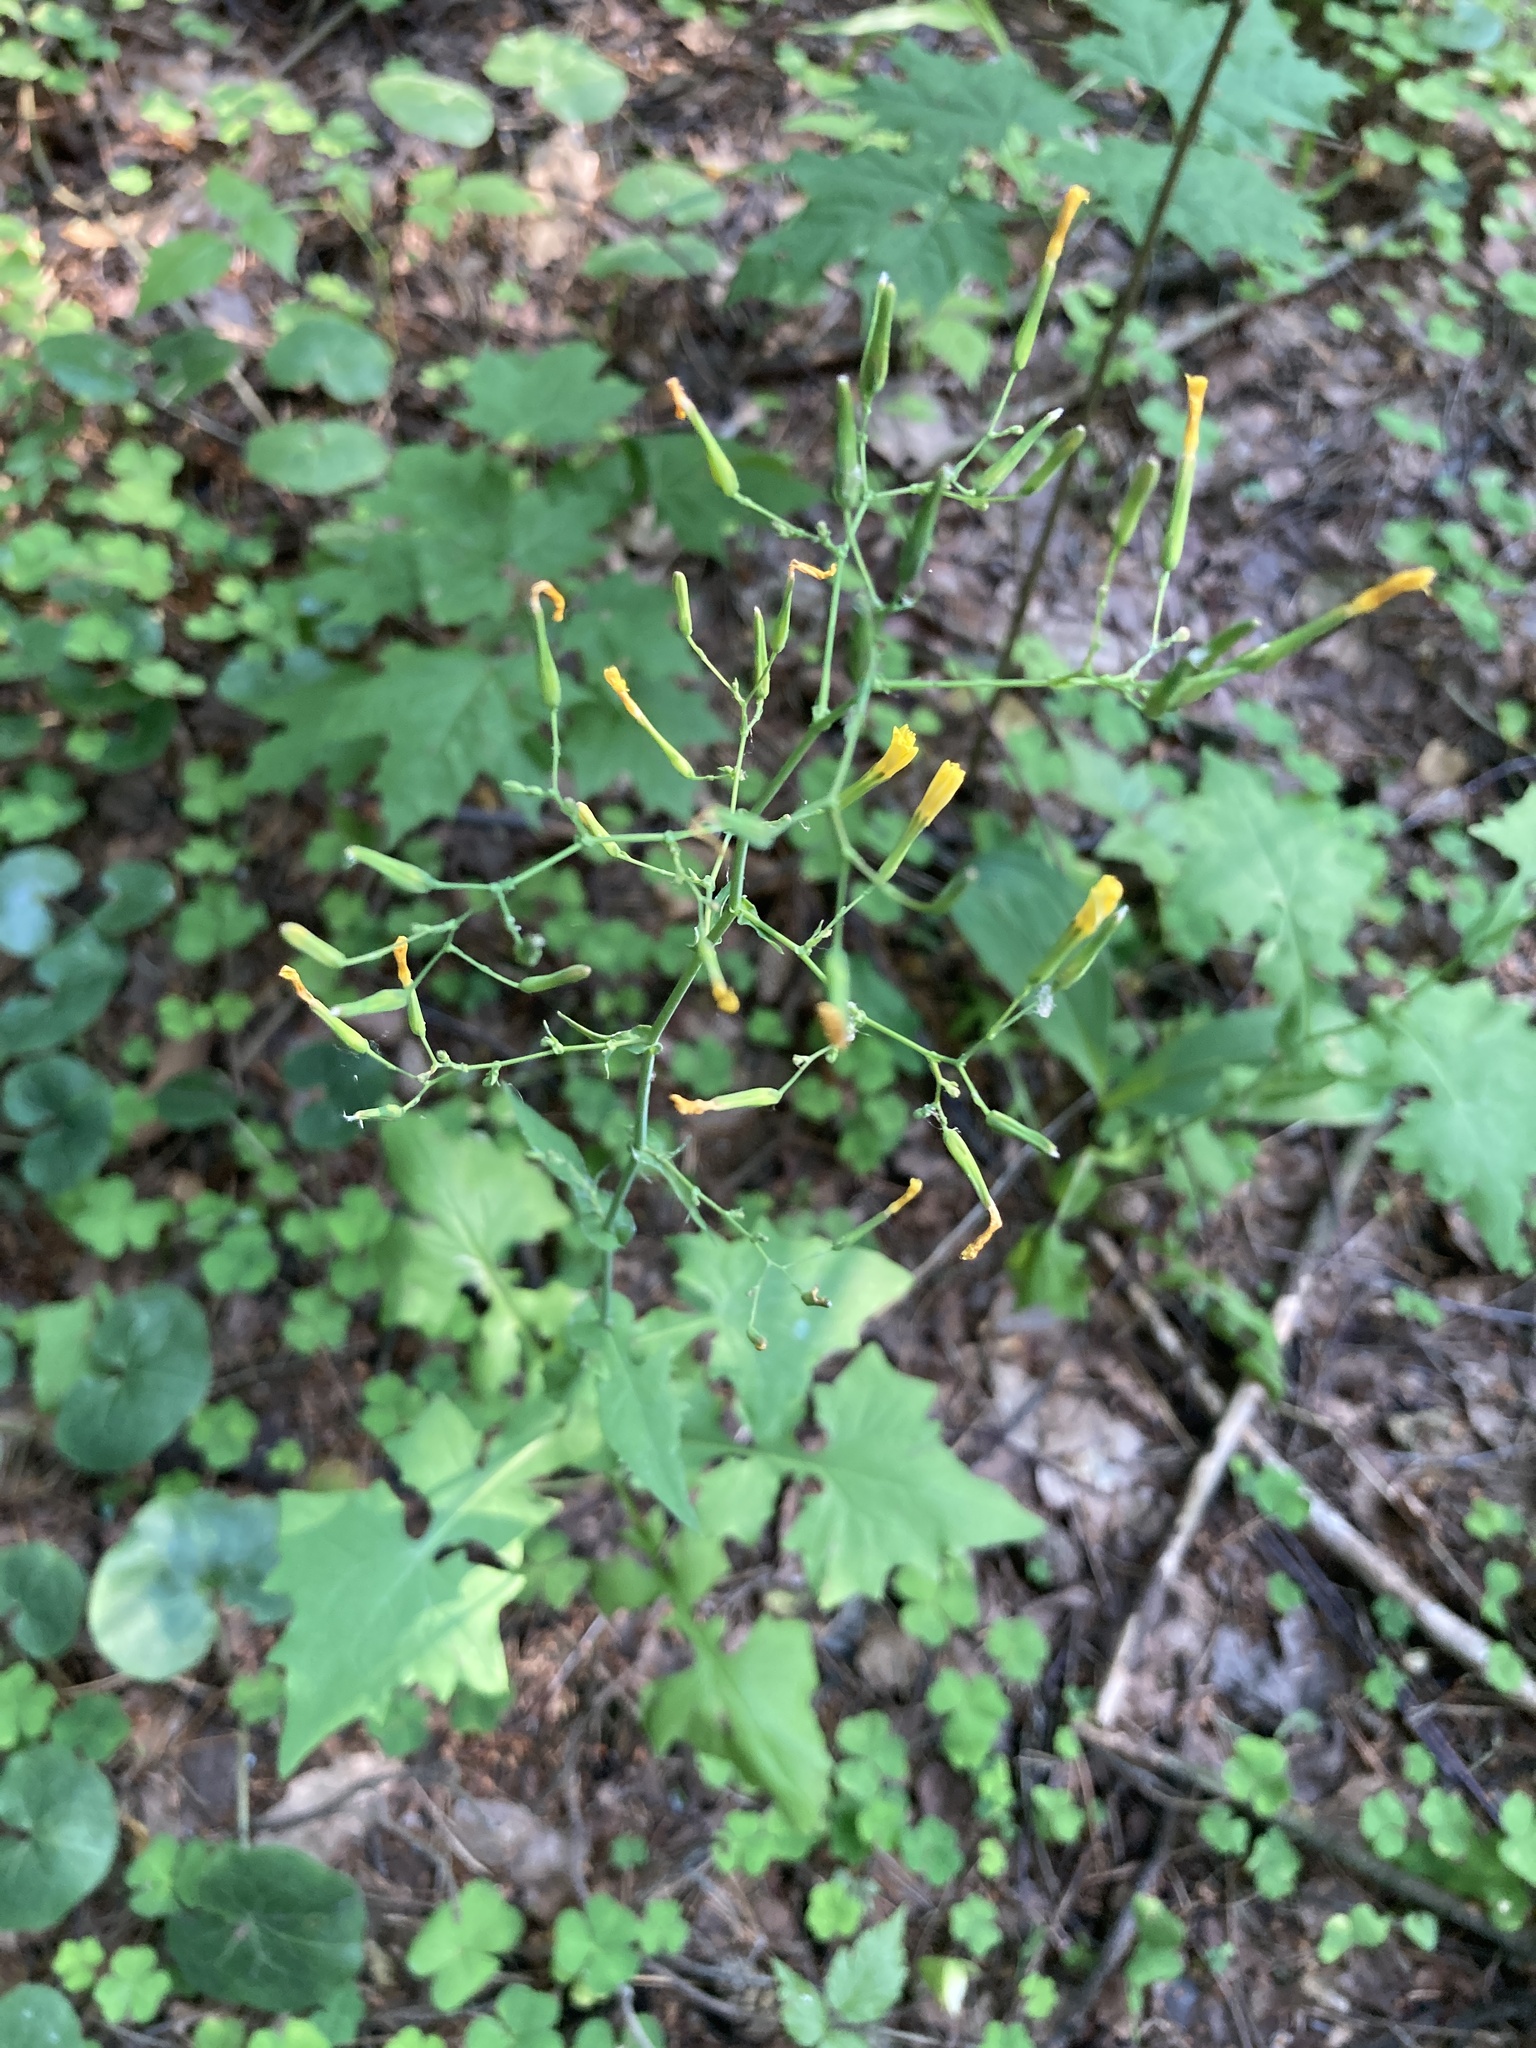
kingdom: Plantae
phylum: Tracheophyta
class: Magnoliopsida
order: Asterales
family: Asteraceae
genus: Mycelis
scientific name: Mycelis muralis
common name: Wall lettuce
